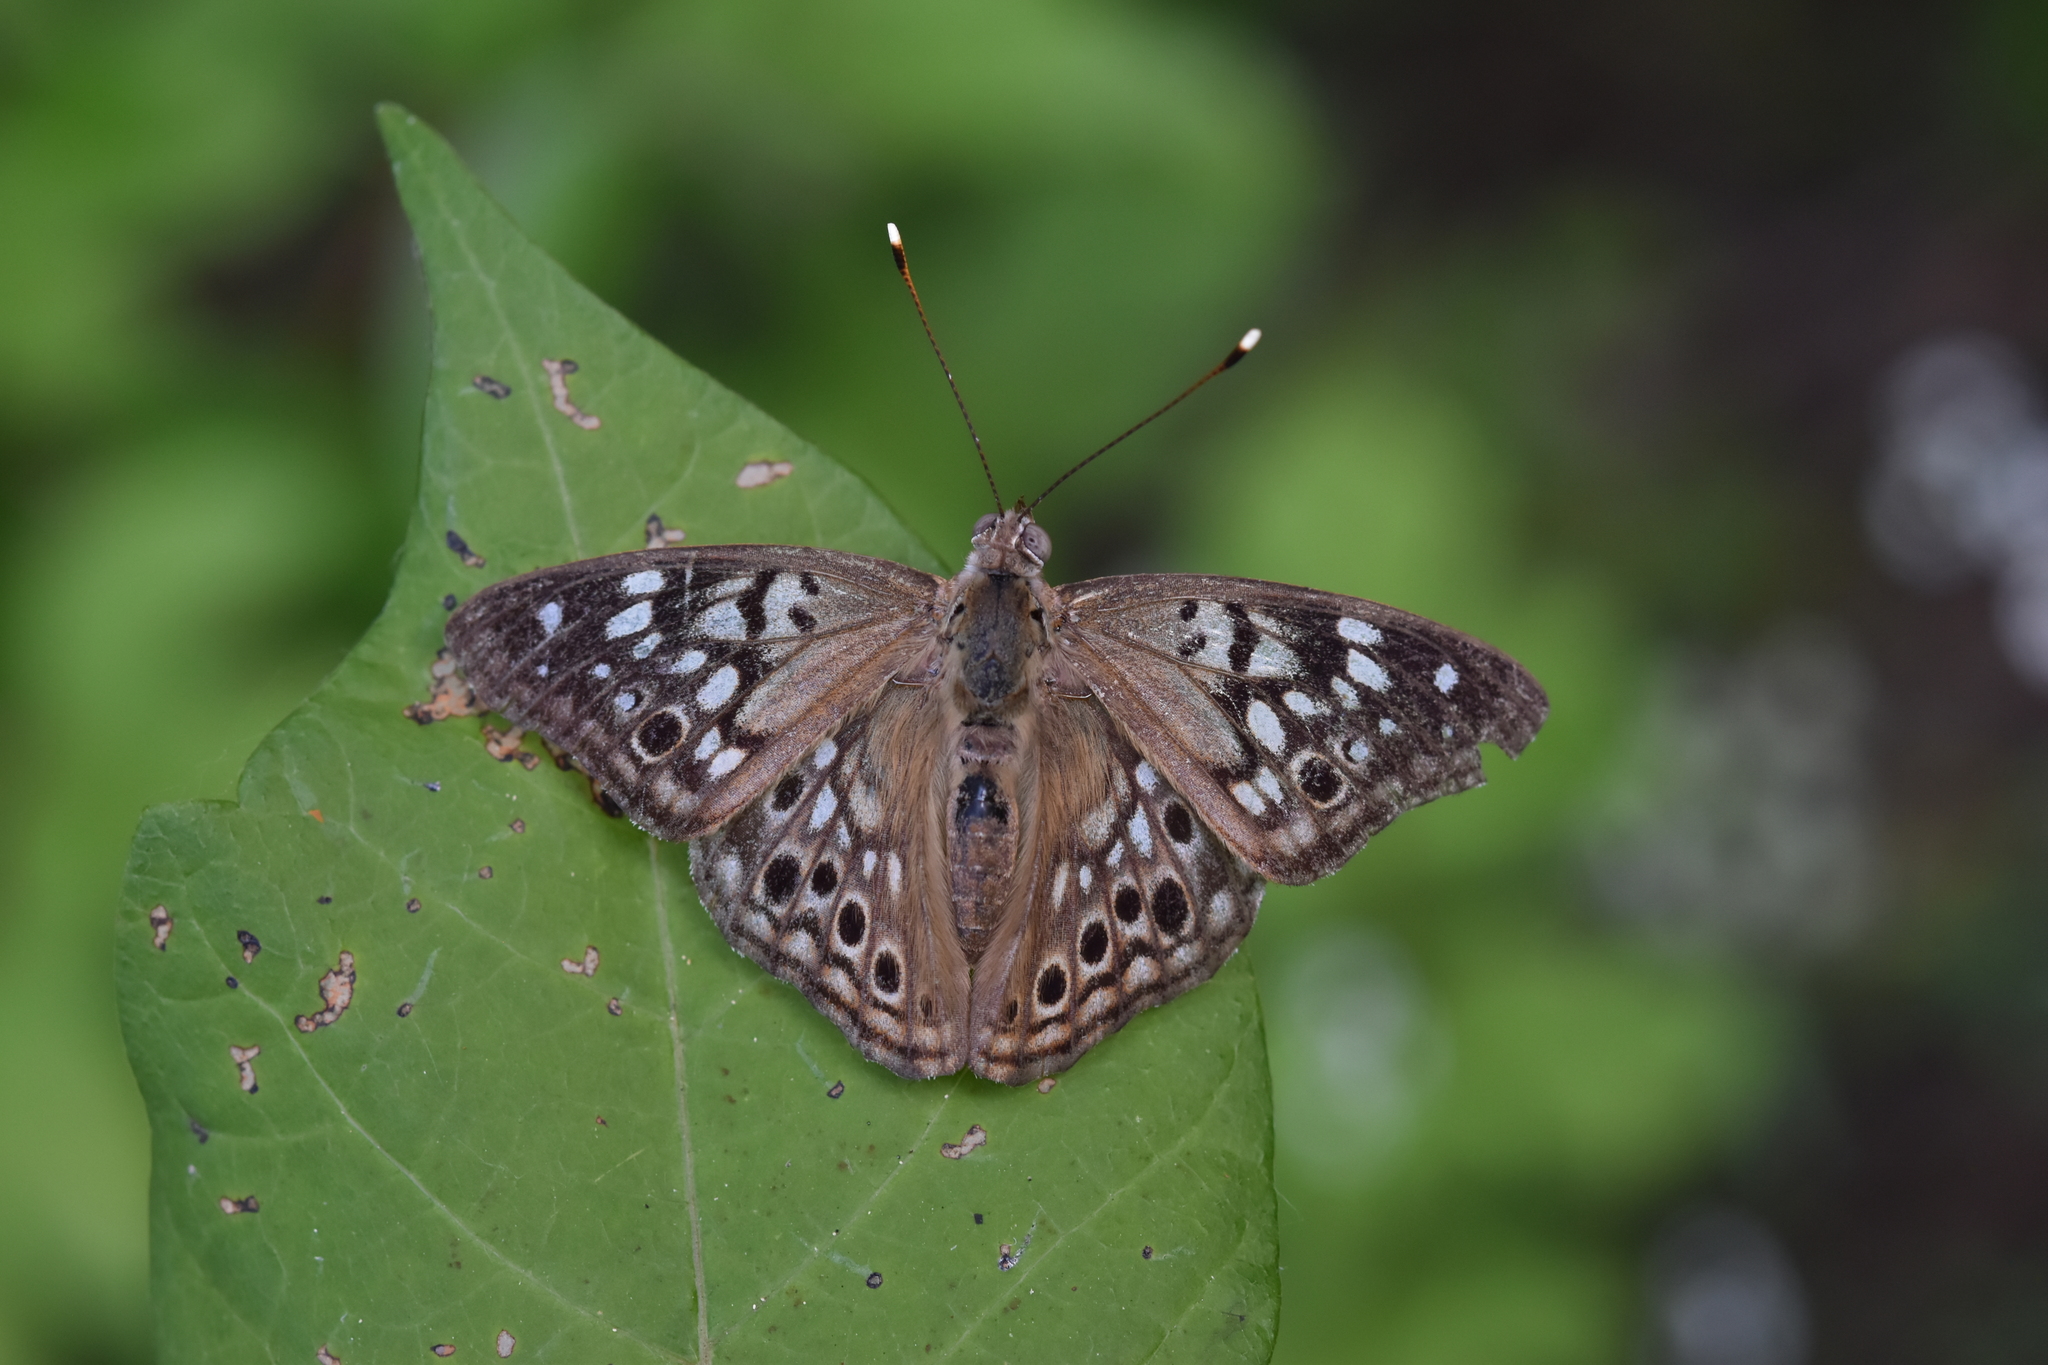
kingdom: Animalia
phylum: Arthropoda
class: Insecta
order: Lepidoptera
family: Nymphalidae
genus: Asterocampa
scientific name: Asterocampa celtis
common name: Hackberry emperor
